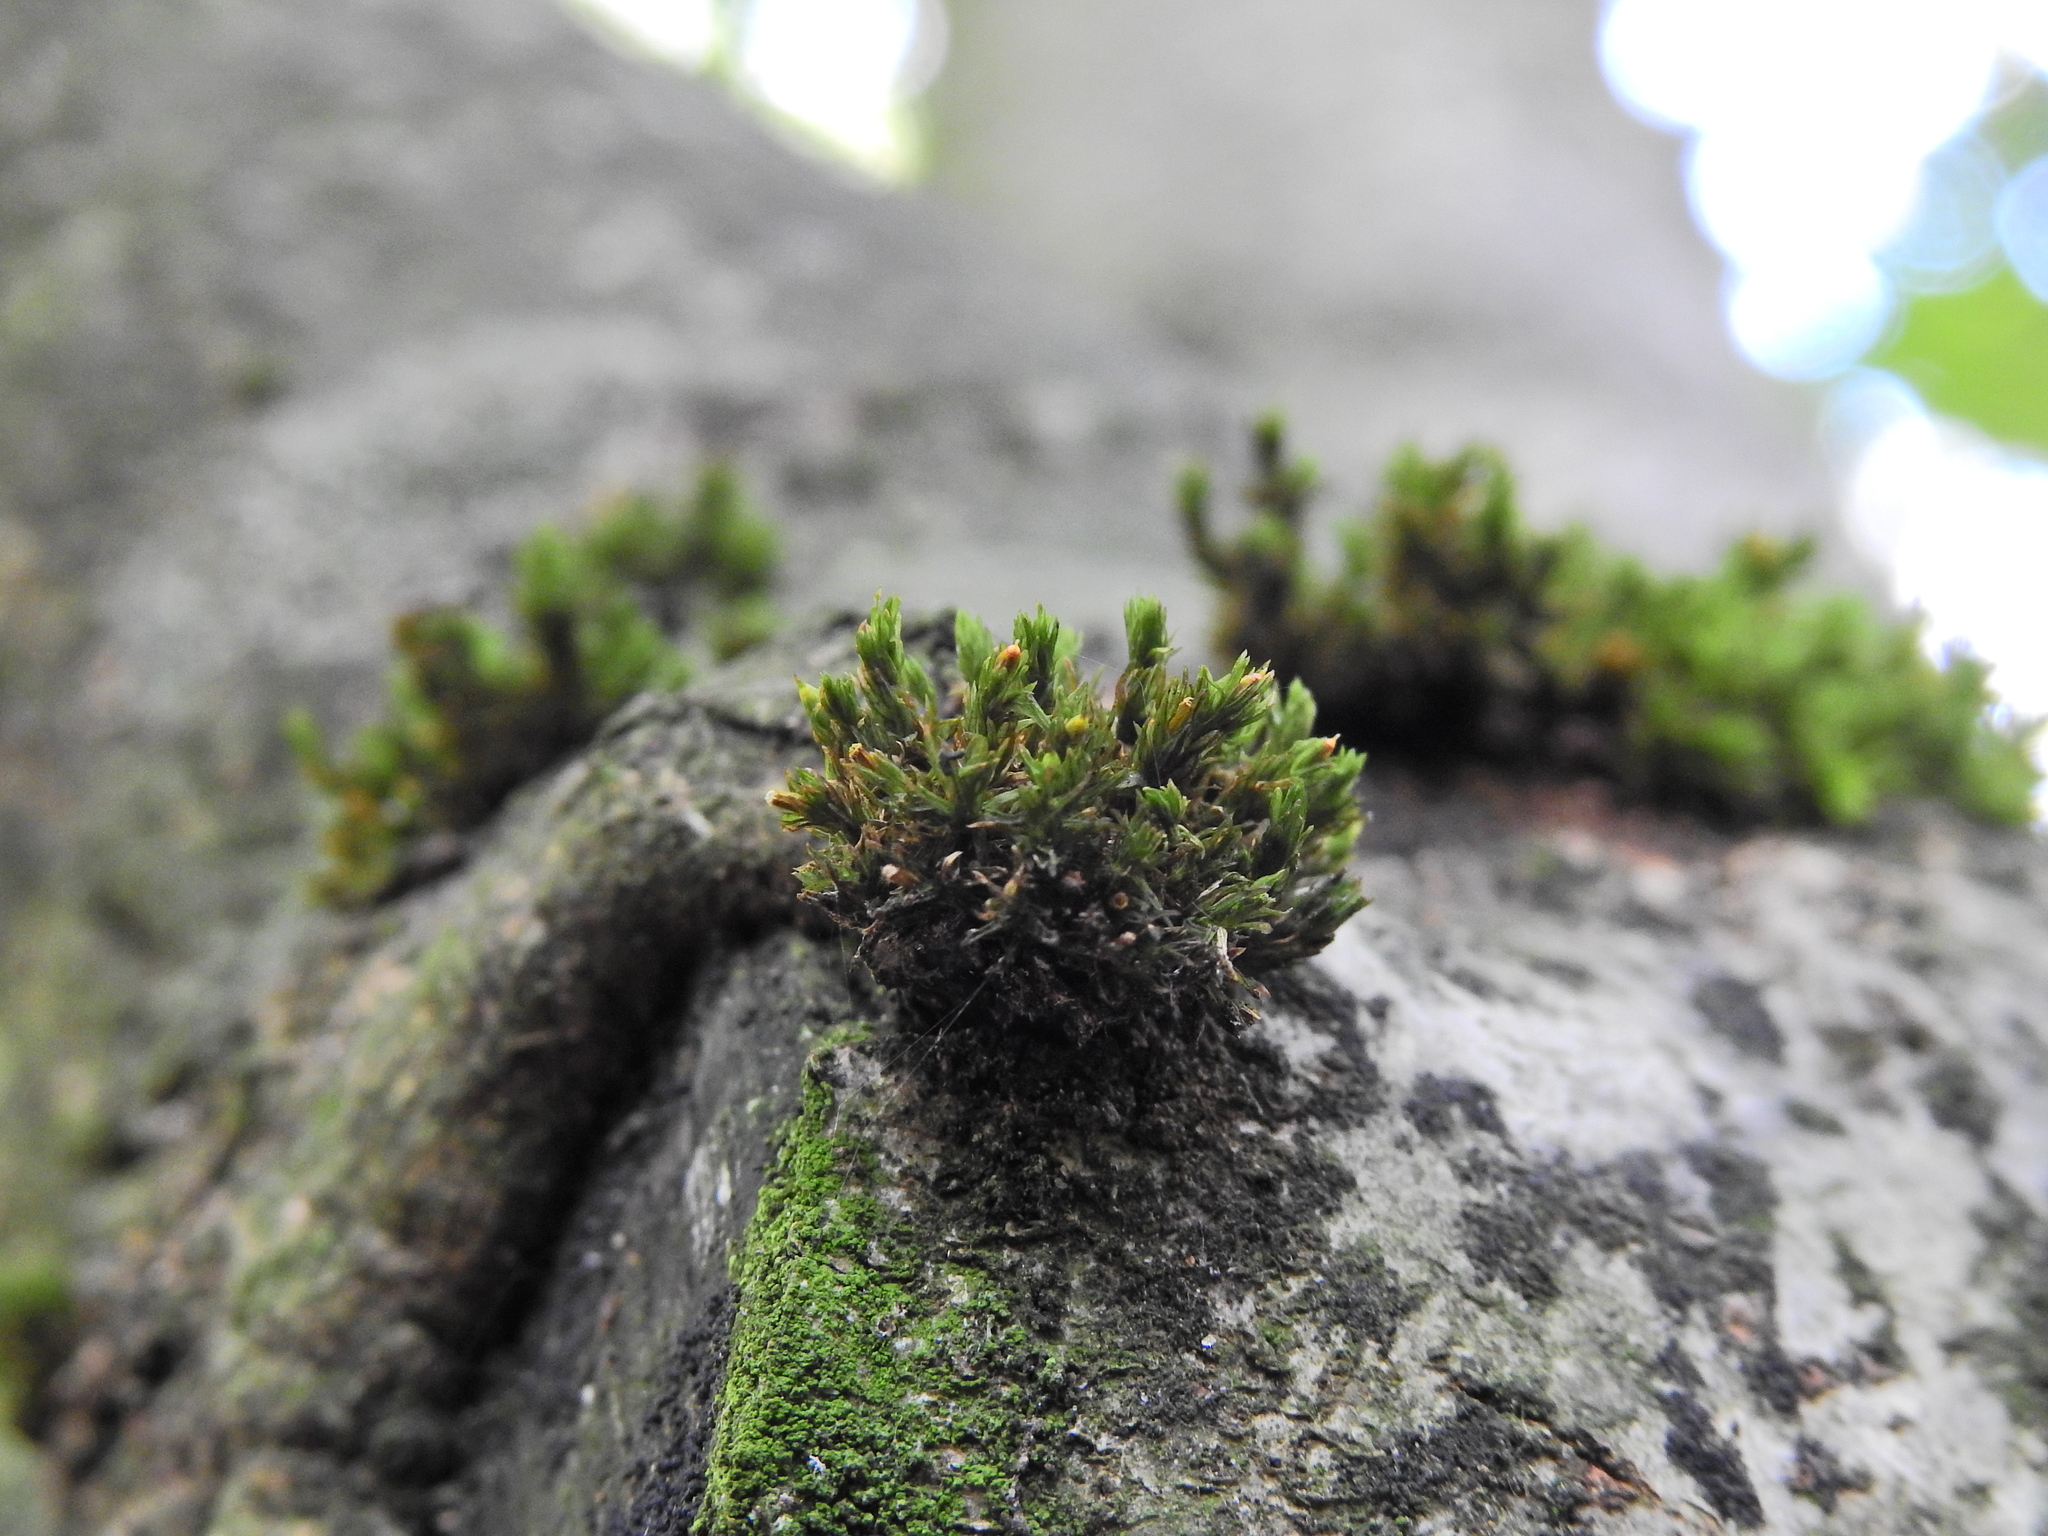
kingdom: Plantae
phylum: Bryophyta
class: Bryopsida
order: Orthotrichales
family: Orthotrichaceae
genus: Lewinskya
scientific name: Lewinskya affinis
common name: Wood bristle-moss
